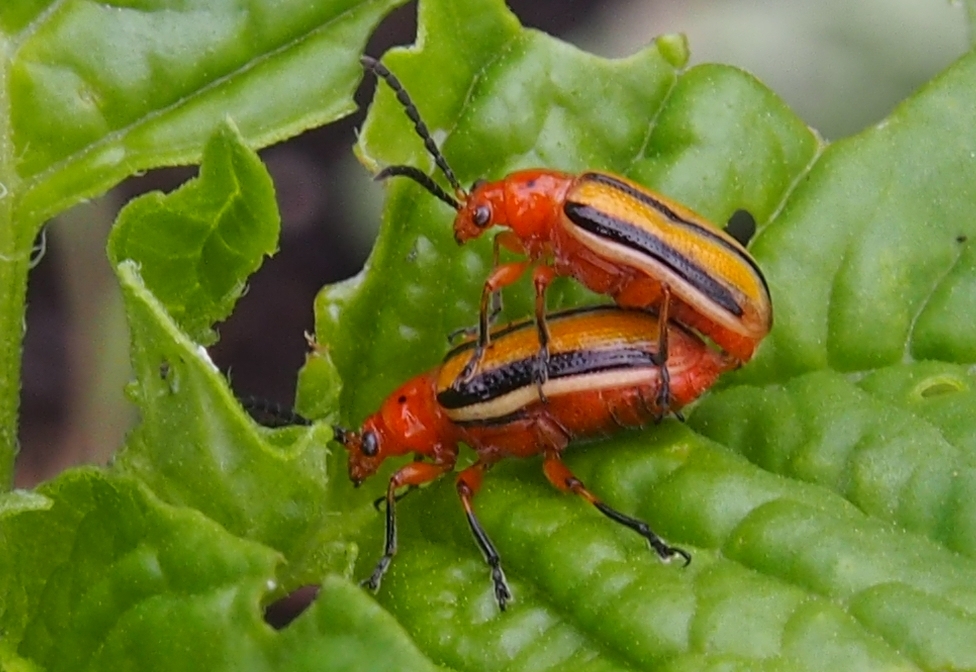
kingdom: Animalia
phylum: Arthropoda
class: Insecta
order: Coleoptera
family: Chrysomelidae
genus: Lema
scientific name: Lema daturaphila
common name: Leaf beetle
